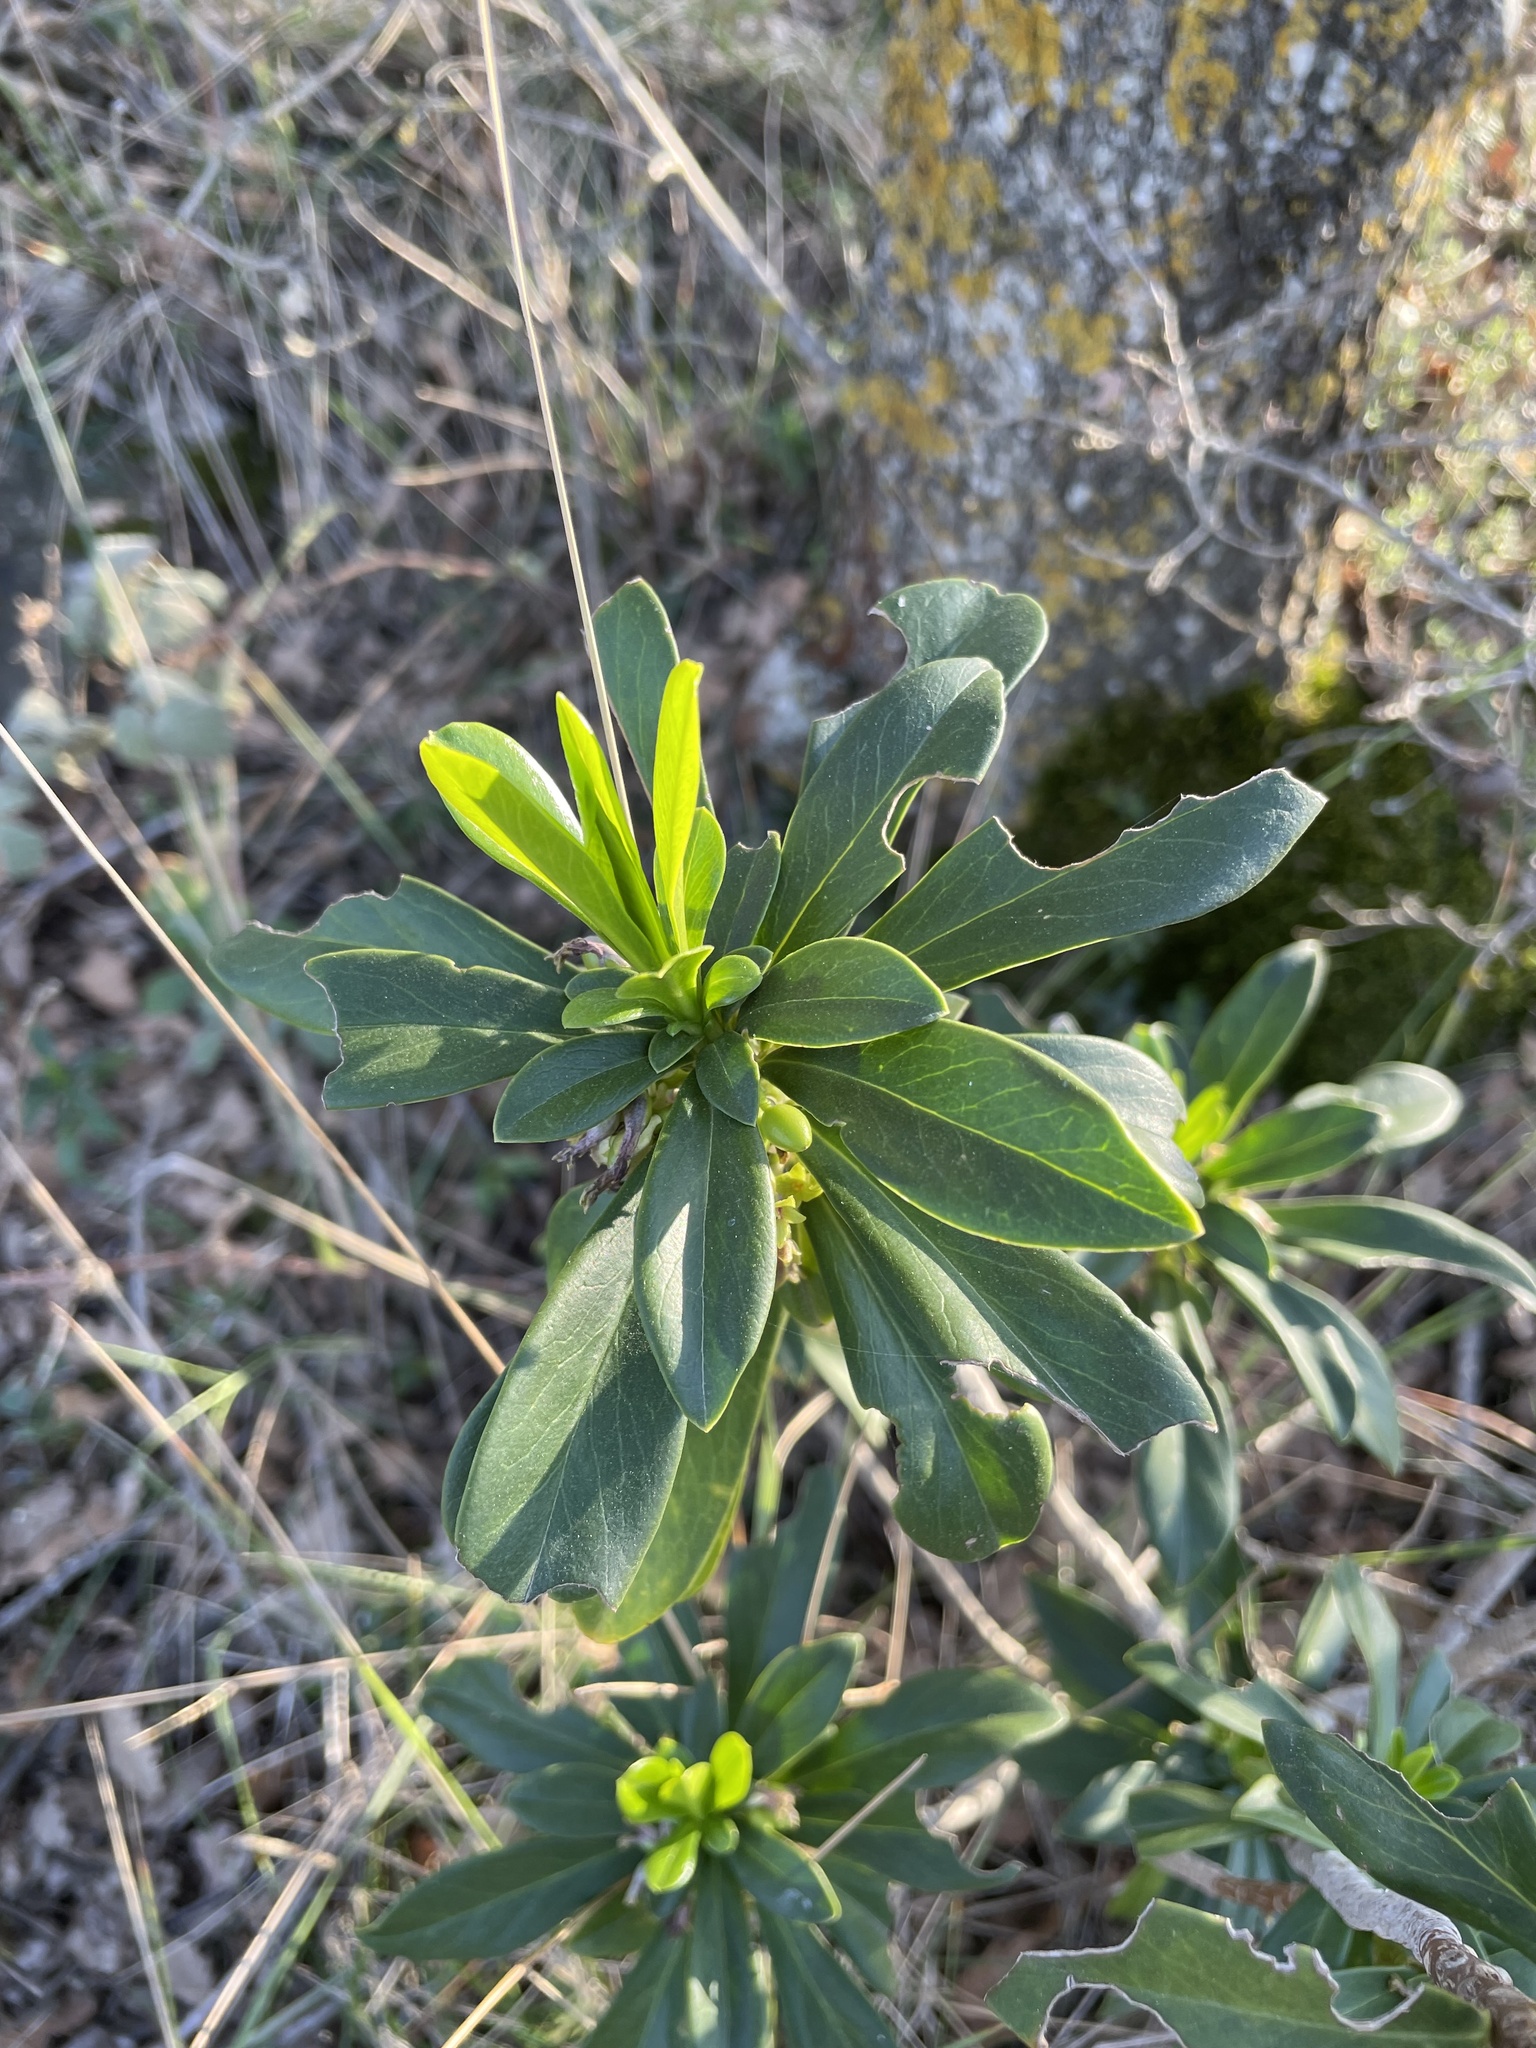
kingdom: Plantae
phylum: Tracheophyta
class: Magnoliopsida
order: Malvales
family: Thymelaeaceae
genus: Daphne
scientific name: Daphne laureola
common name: Spurge-laurel
